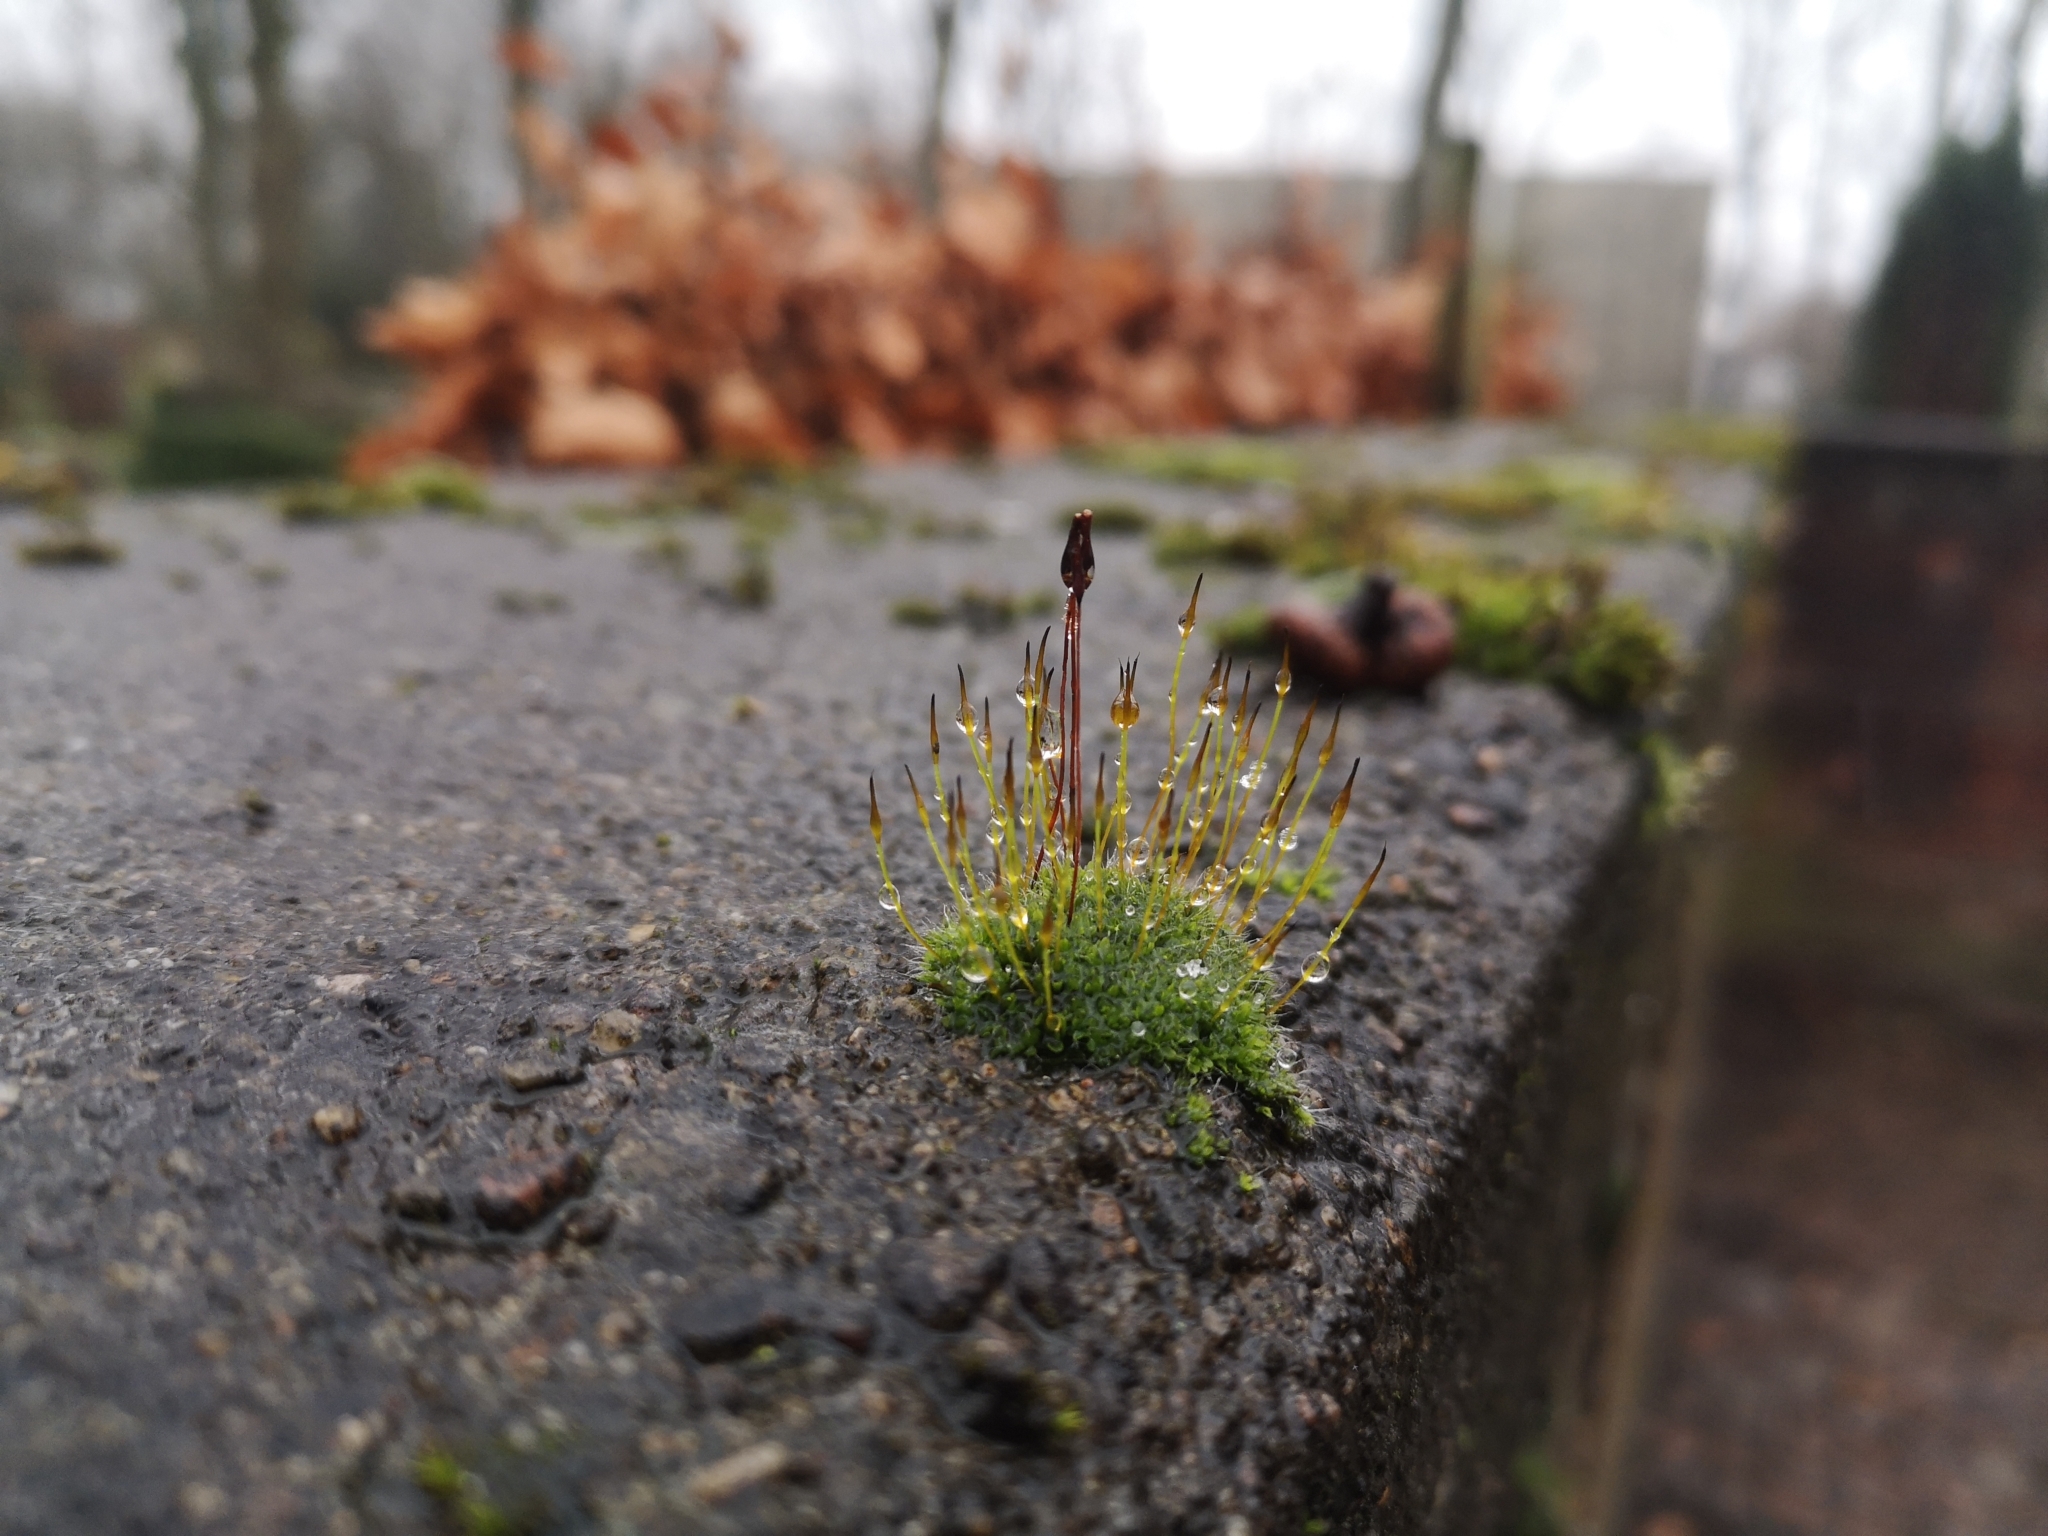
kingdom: Plantae
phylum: Bryophyta
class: Bryopsida
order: Pottiales
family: Pottiaceae
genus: Tortula
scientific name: Tortula muralis
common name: Wall screw-moss
